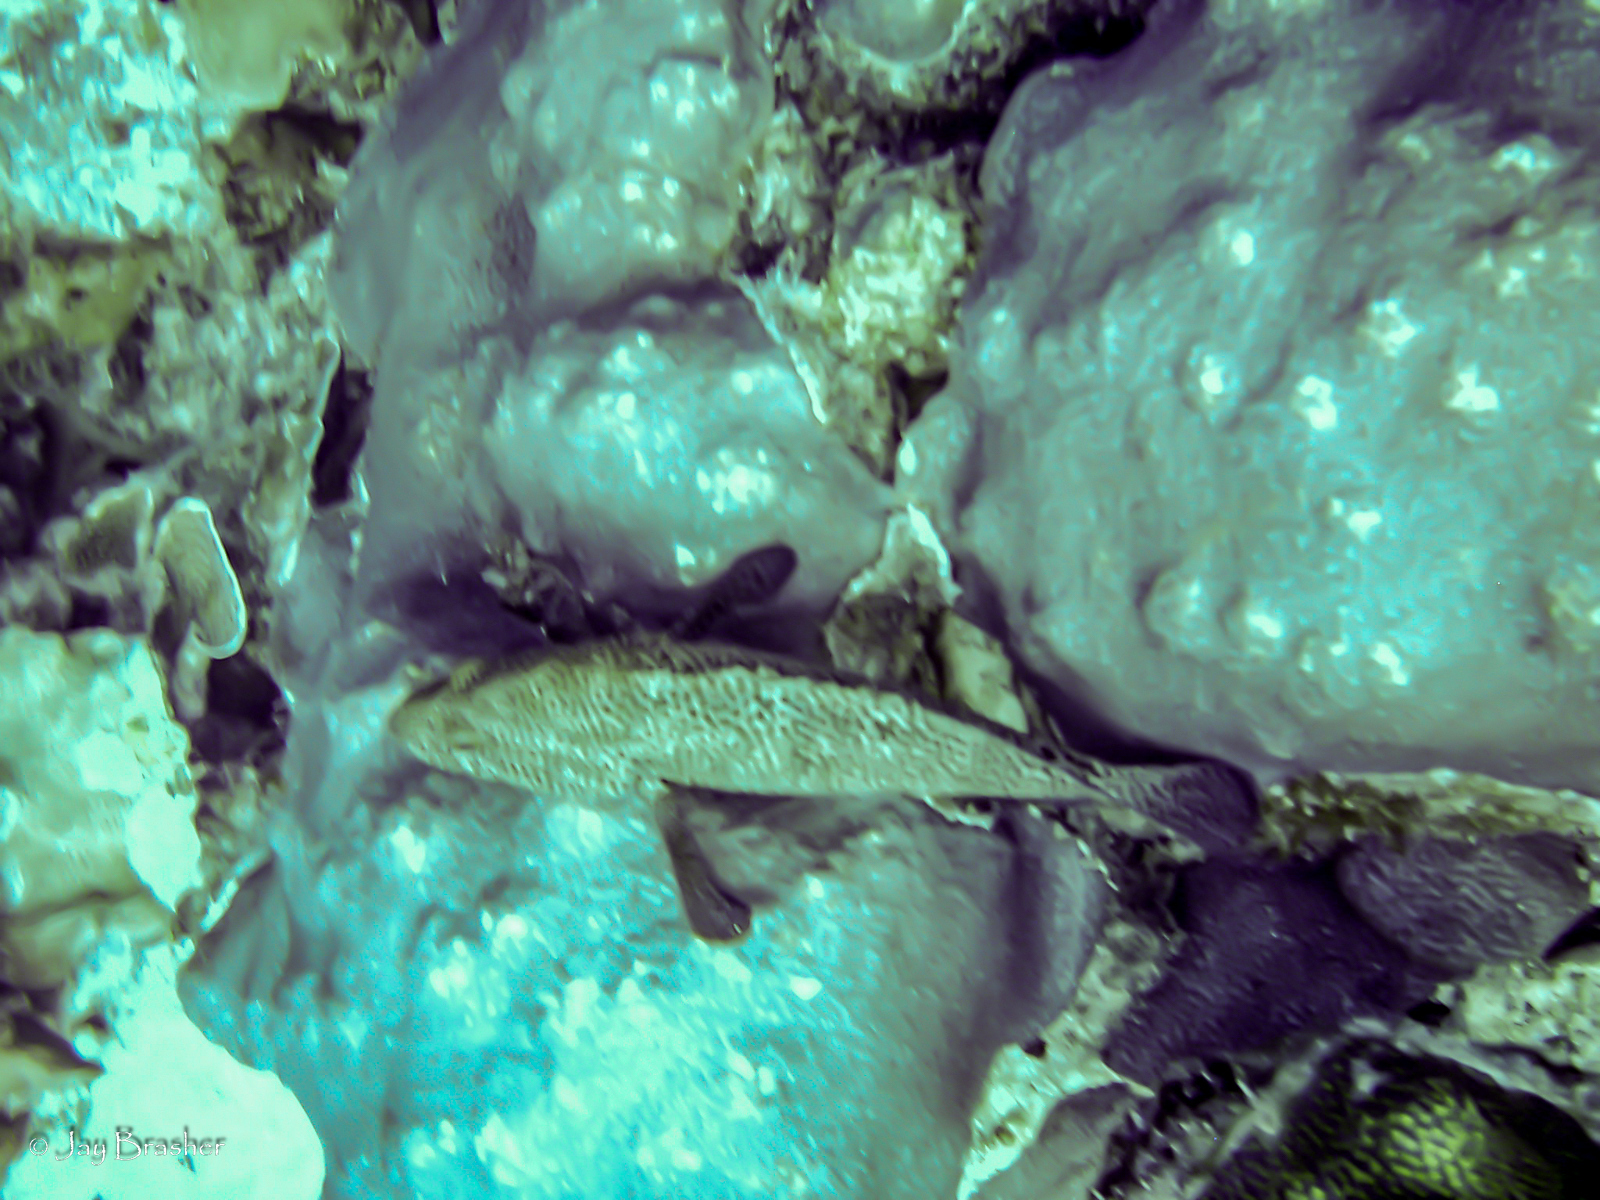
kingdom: Animalia
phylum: Chordata
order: Perciformes
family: Serranidae
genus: Cephalopholis
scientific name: Cephalopholis cruentata
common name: Graysby
